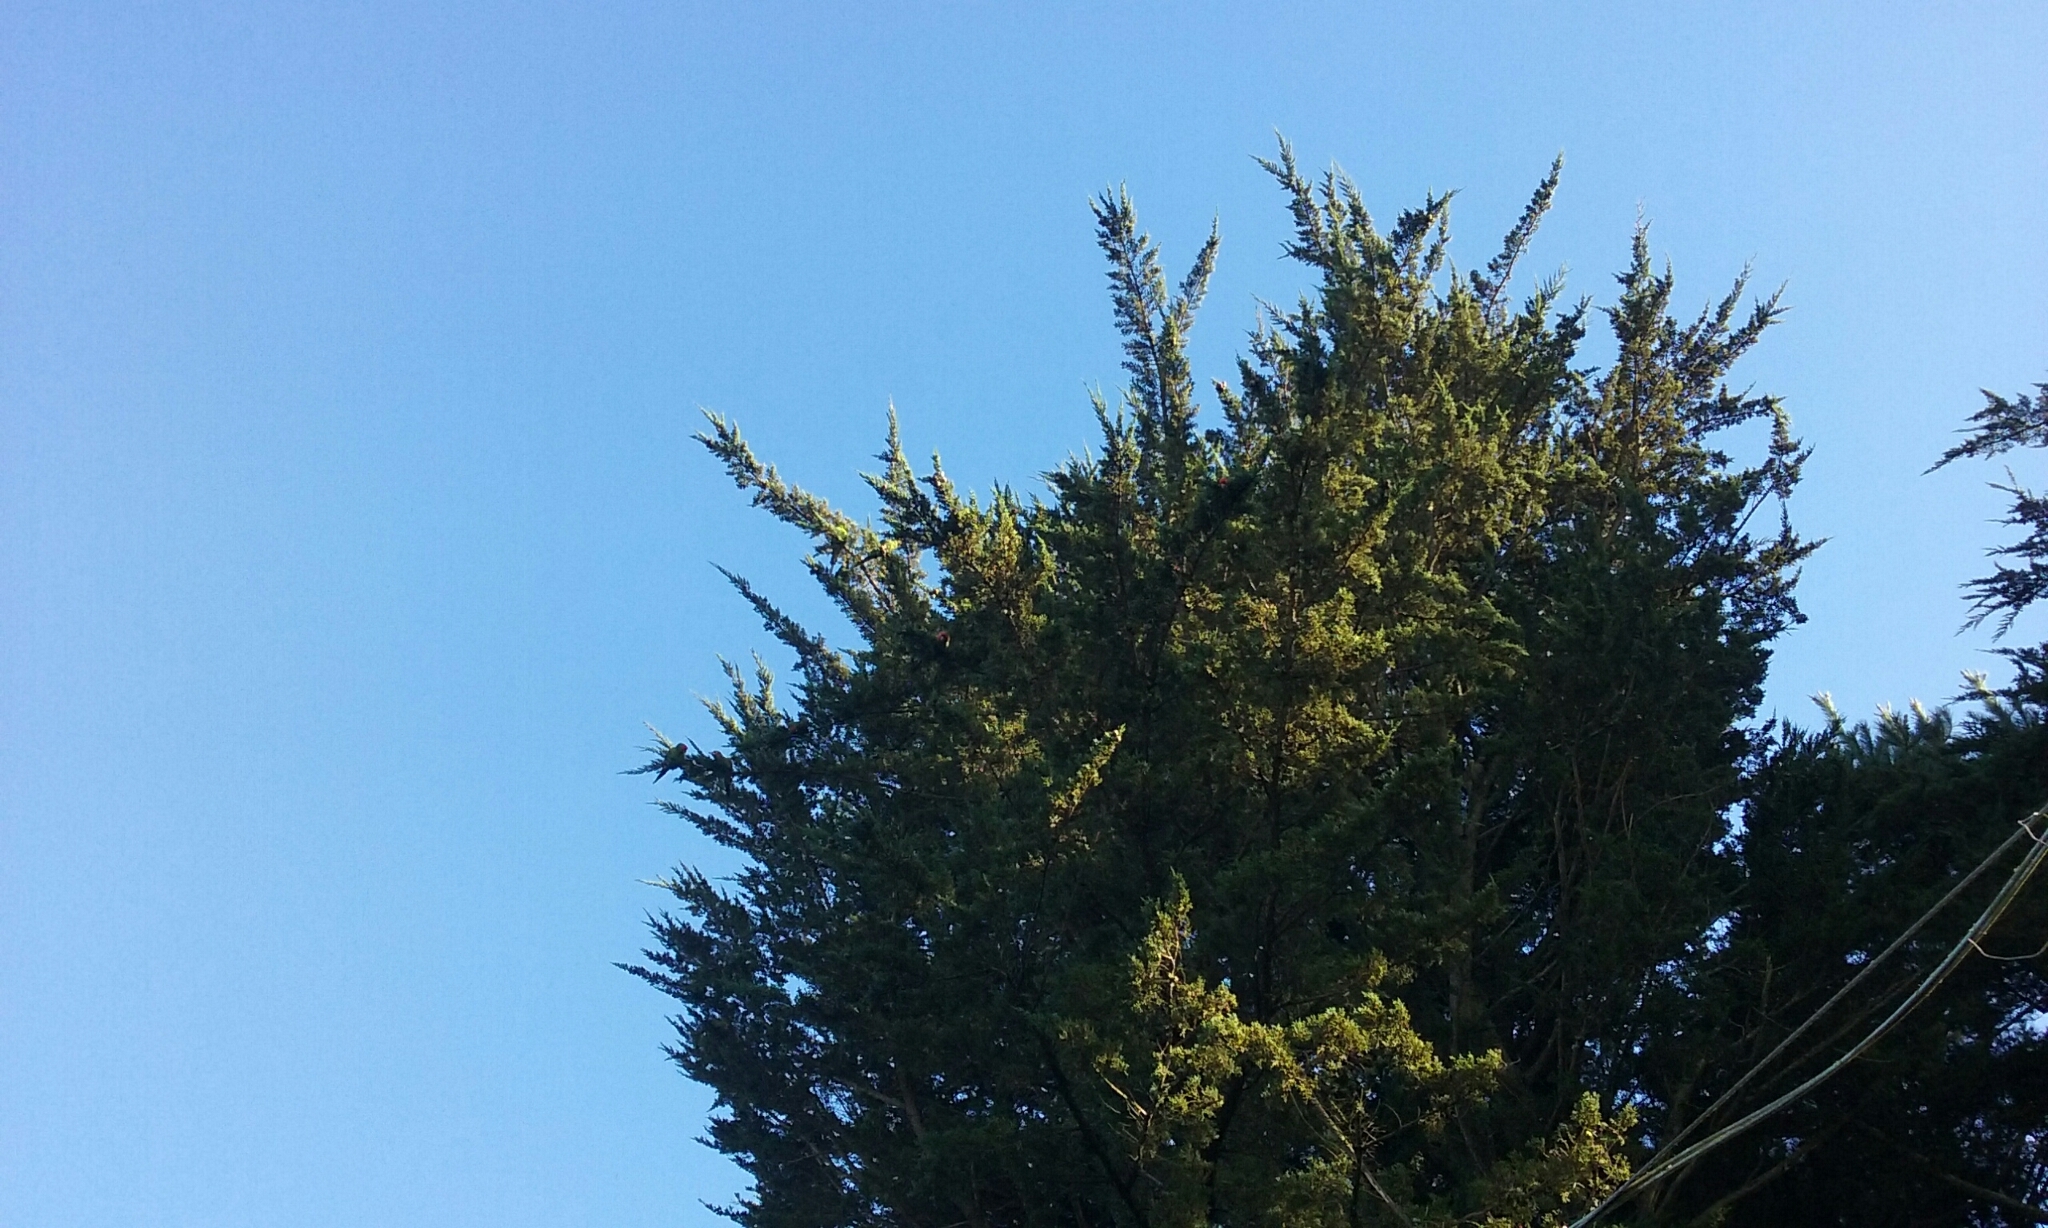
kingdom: Animalia
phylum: Chordata
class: Aves
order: Psittaciformes
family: Psittacidae
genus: Aratinga
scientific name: Aratinga erythrogenys
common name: Red-masked parakeet
